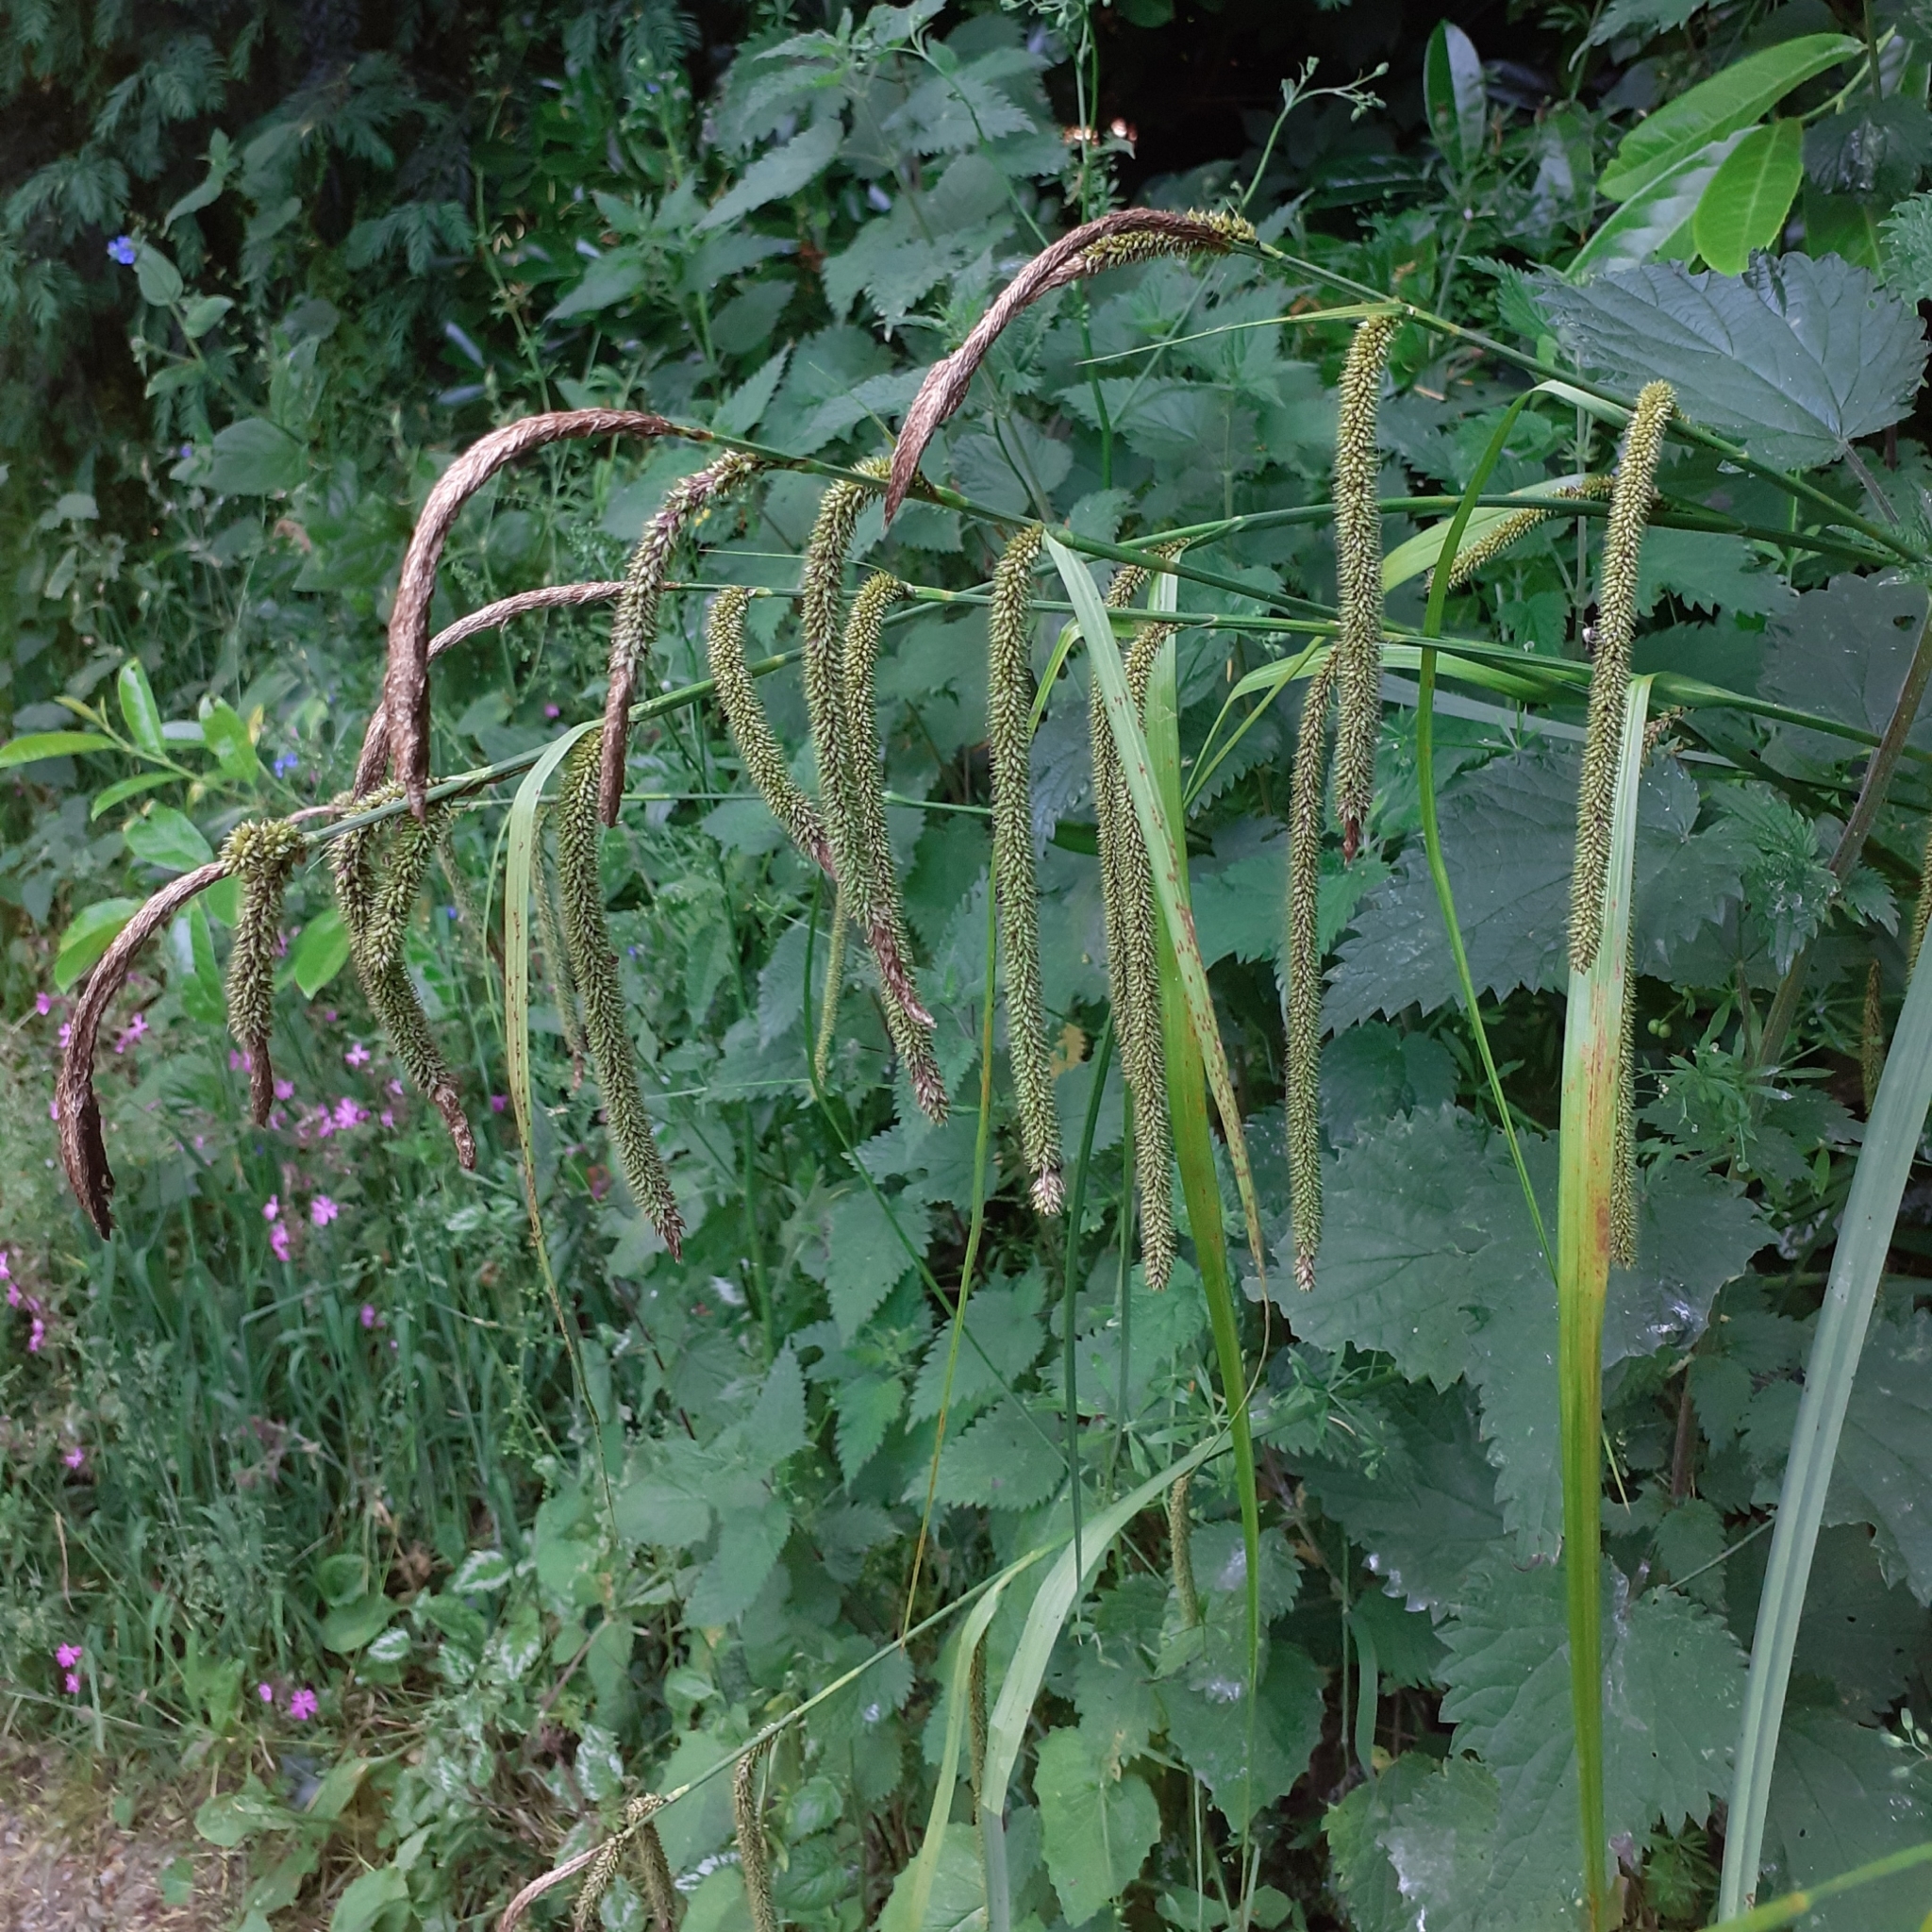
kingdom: Plantae
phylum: Tracheophyta
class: Liliopsida
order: Poales
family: Cyperaceae
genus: Carex
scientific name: Carex pendula
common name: Pendulous sedge
